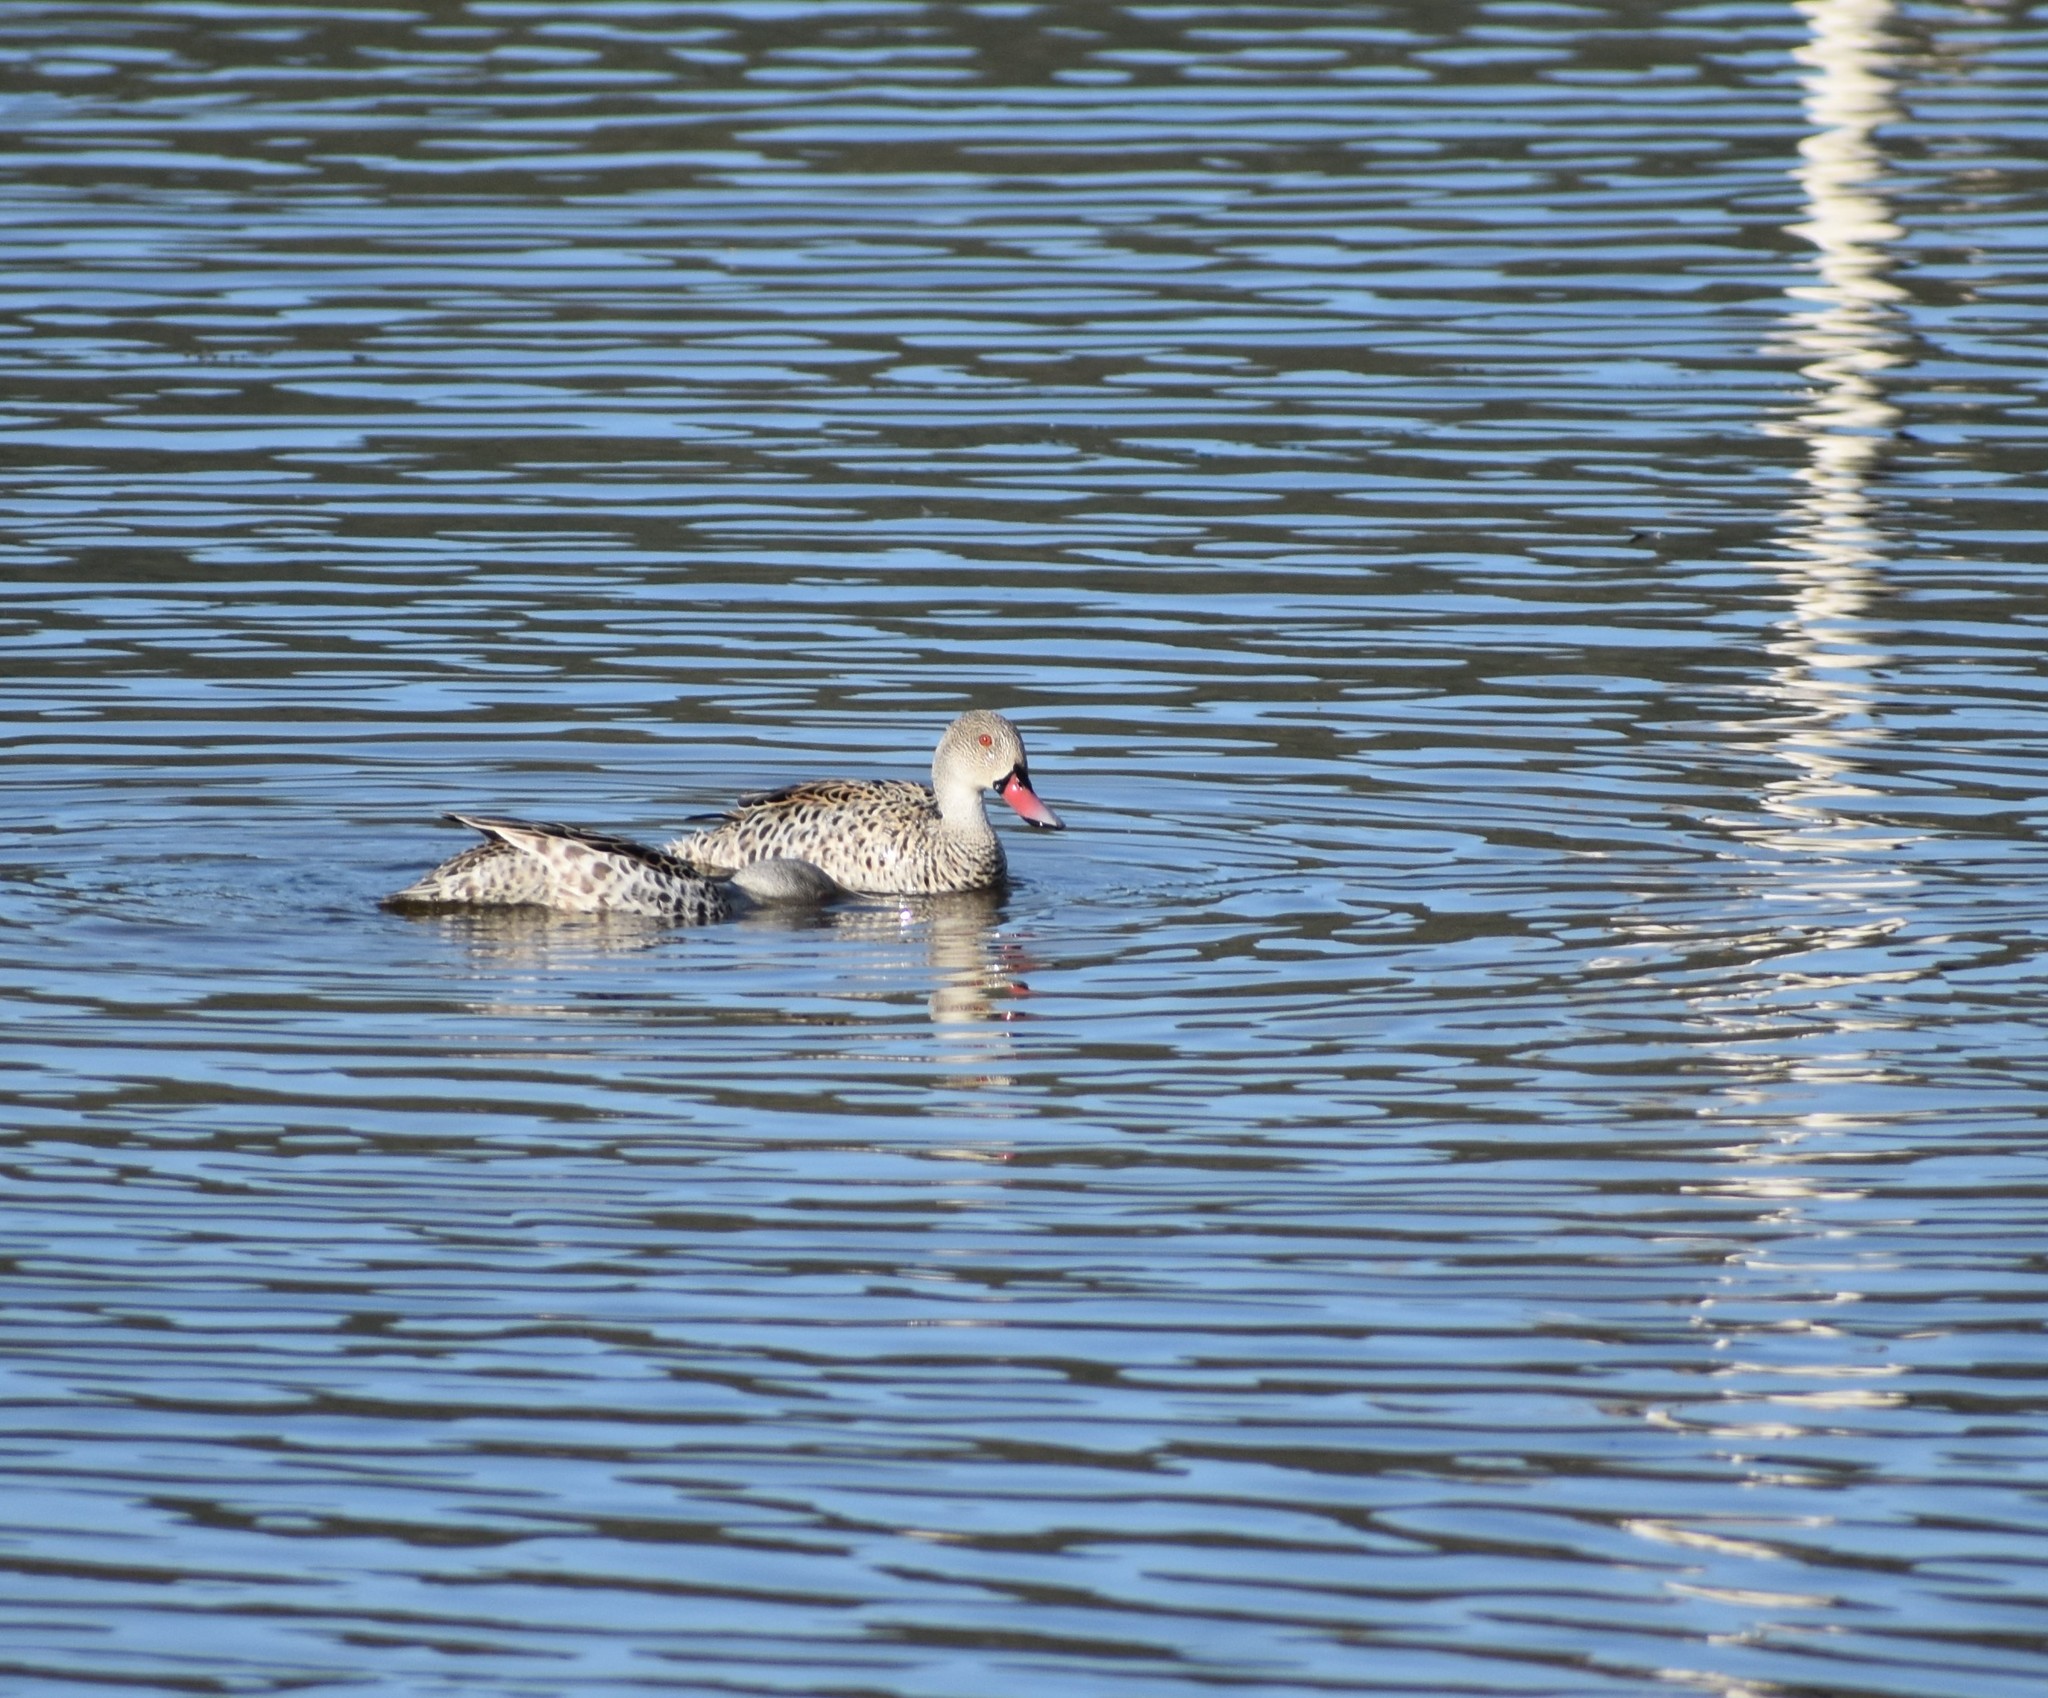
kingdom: Animalia
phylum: Chordata
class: Aves
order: Anseriformes
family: Anatidae
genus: Anas
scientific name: Anas capensis
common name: Cape teal
